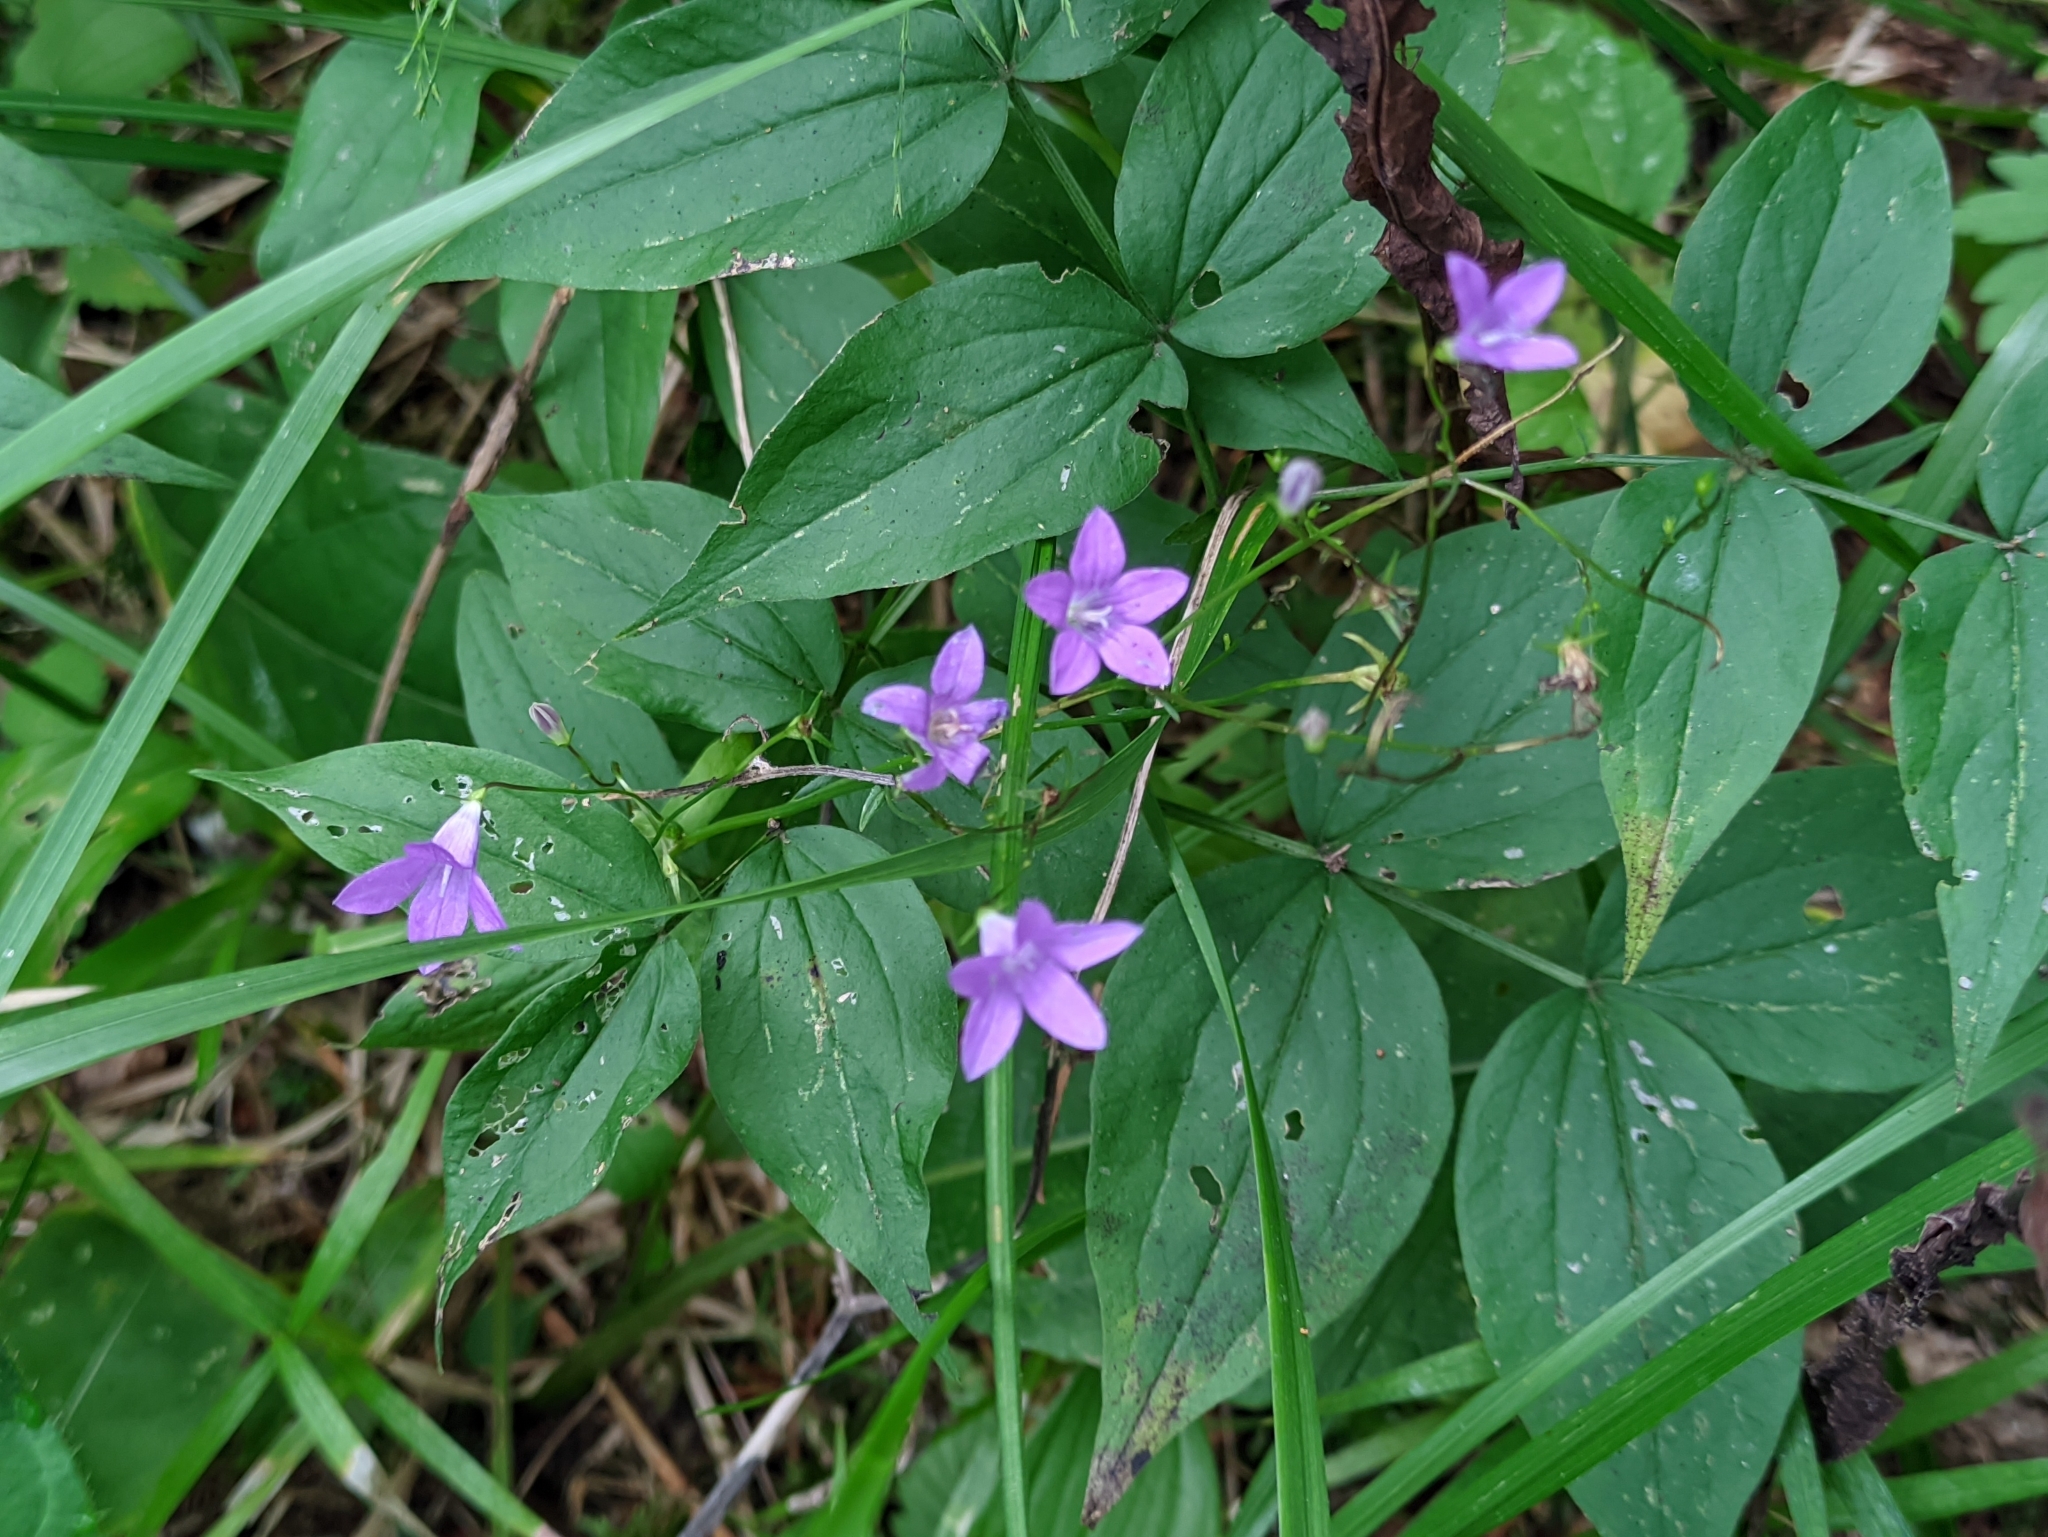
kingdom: Plantae
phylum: Tracheophyta
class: Magnoliopsida
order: Asterales
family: Campanulaceae
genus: Campanula
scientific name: Campanula patula
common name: Spreading bellflower
